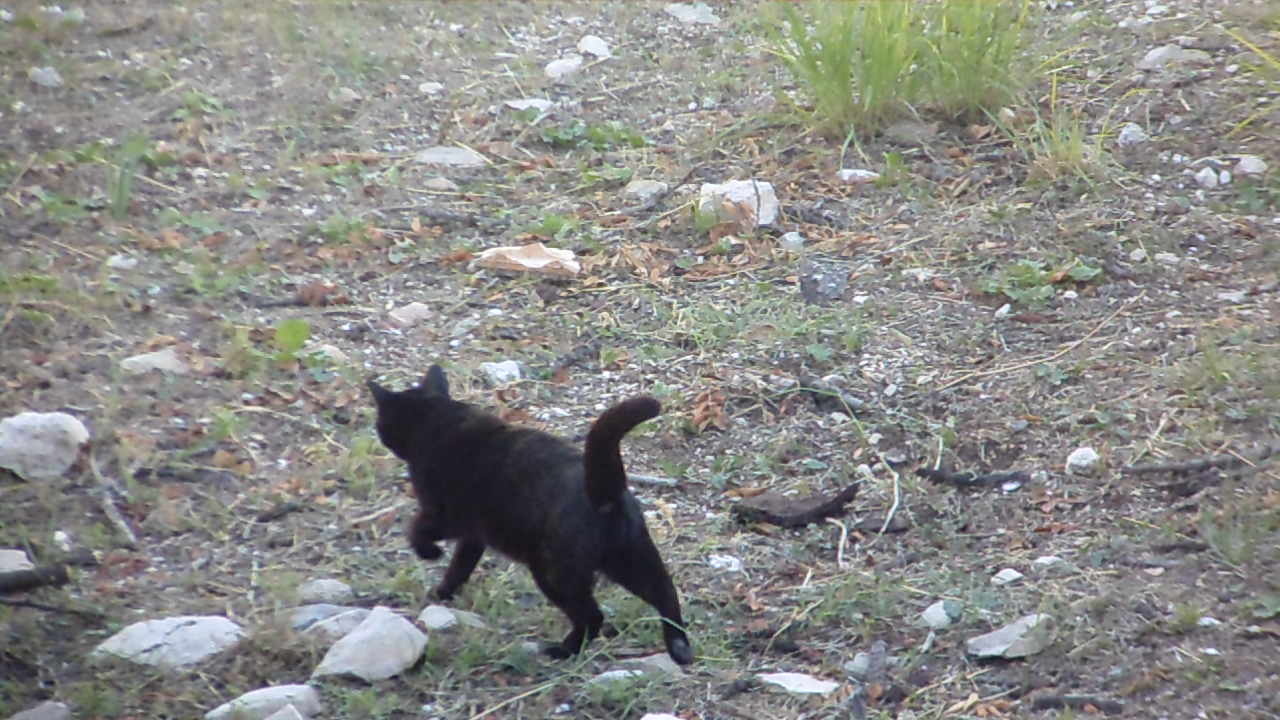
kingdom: Animalia
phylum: Chordata
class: Mammalia
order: Carnivora
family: Felidae
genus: Felis
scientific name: Felis catus
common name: Domestic cat
